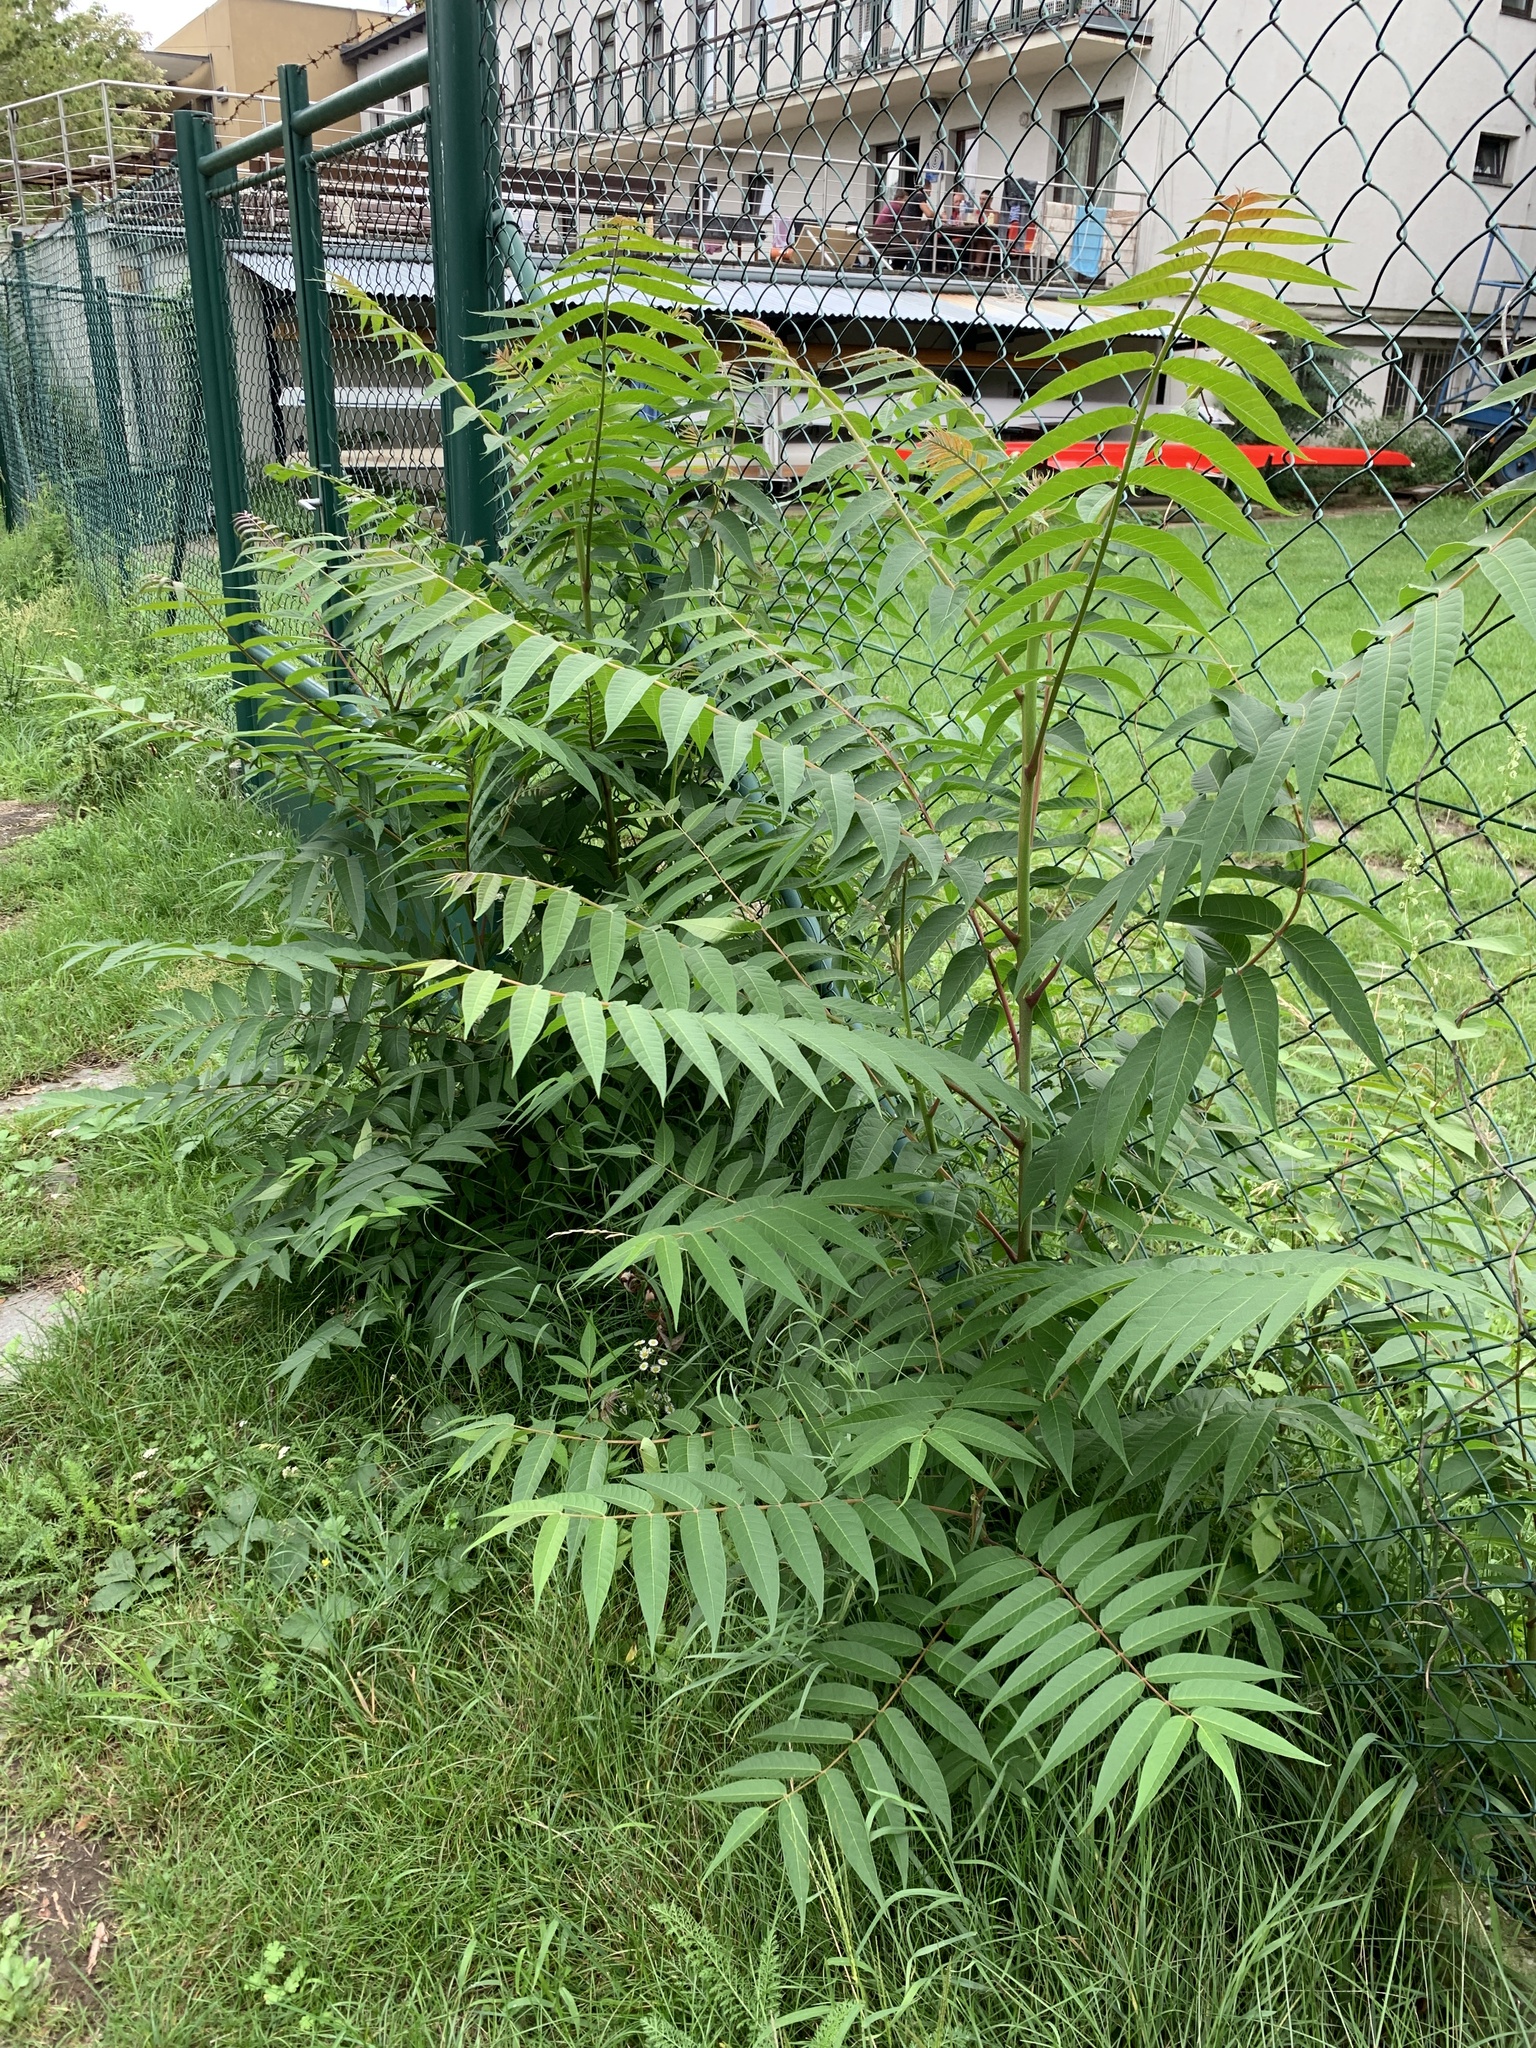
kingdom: Plantae
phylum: Tracheophyta
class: Magnoliopsida
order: Sapindales
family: Simaroubaceae
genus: Ailanthus
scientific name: Ailanthus altissima
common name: Tree-of-heaven
